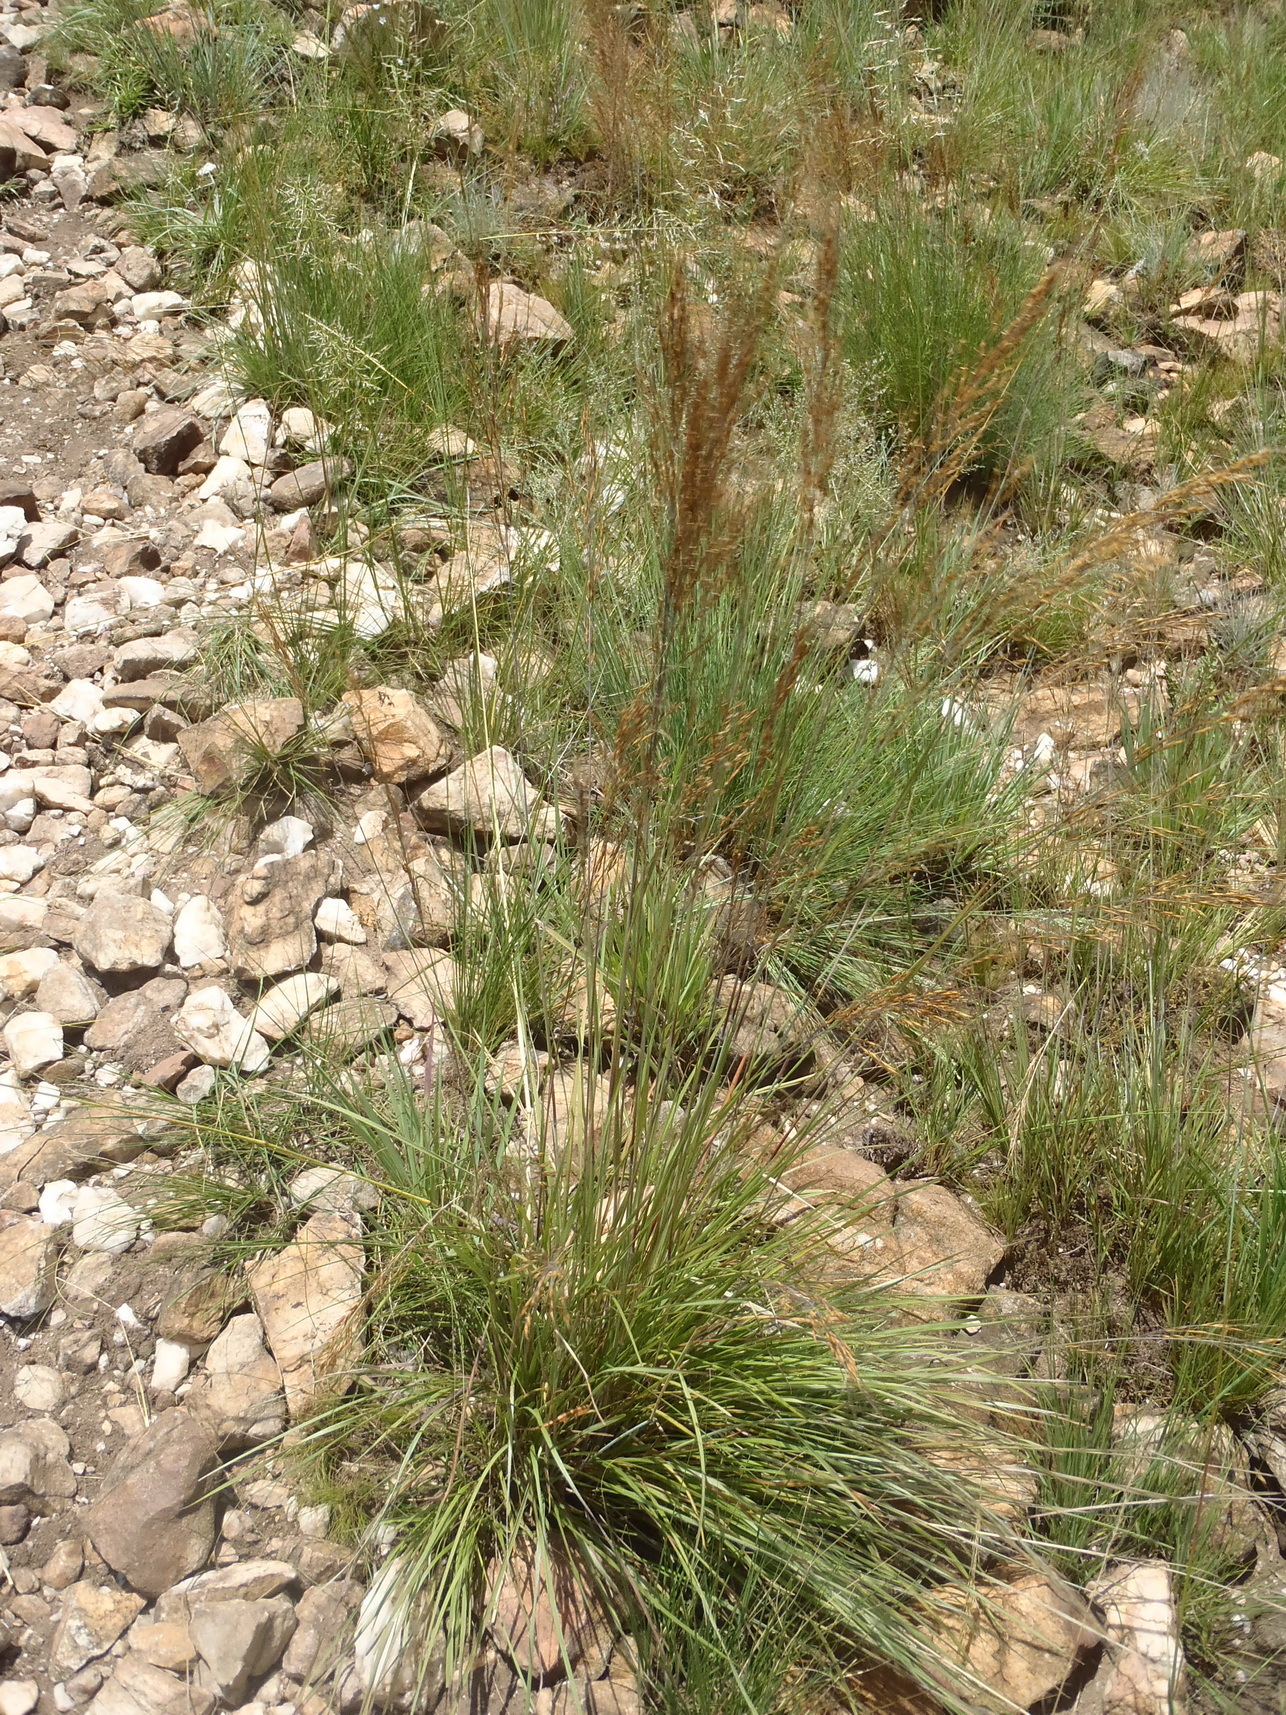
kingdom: Plantae
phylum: Tracheophyta
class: Liliopsida
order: Poales
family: Poaceae
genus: Loudetia
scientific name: Loudetia simplex
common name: Common russet grass
